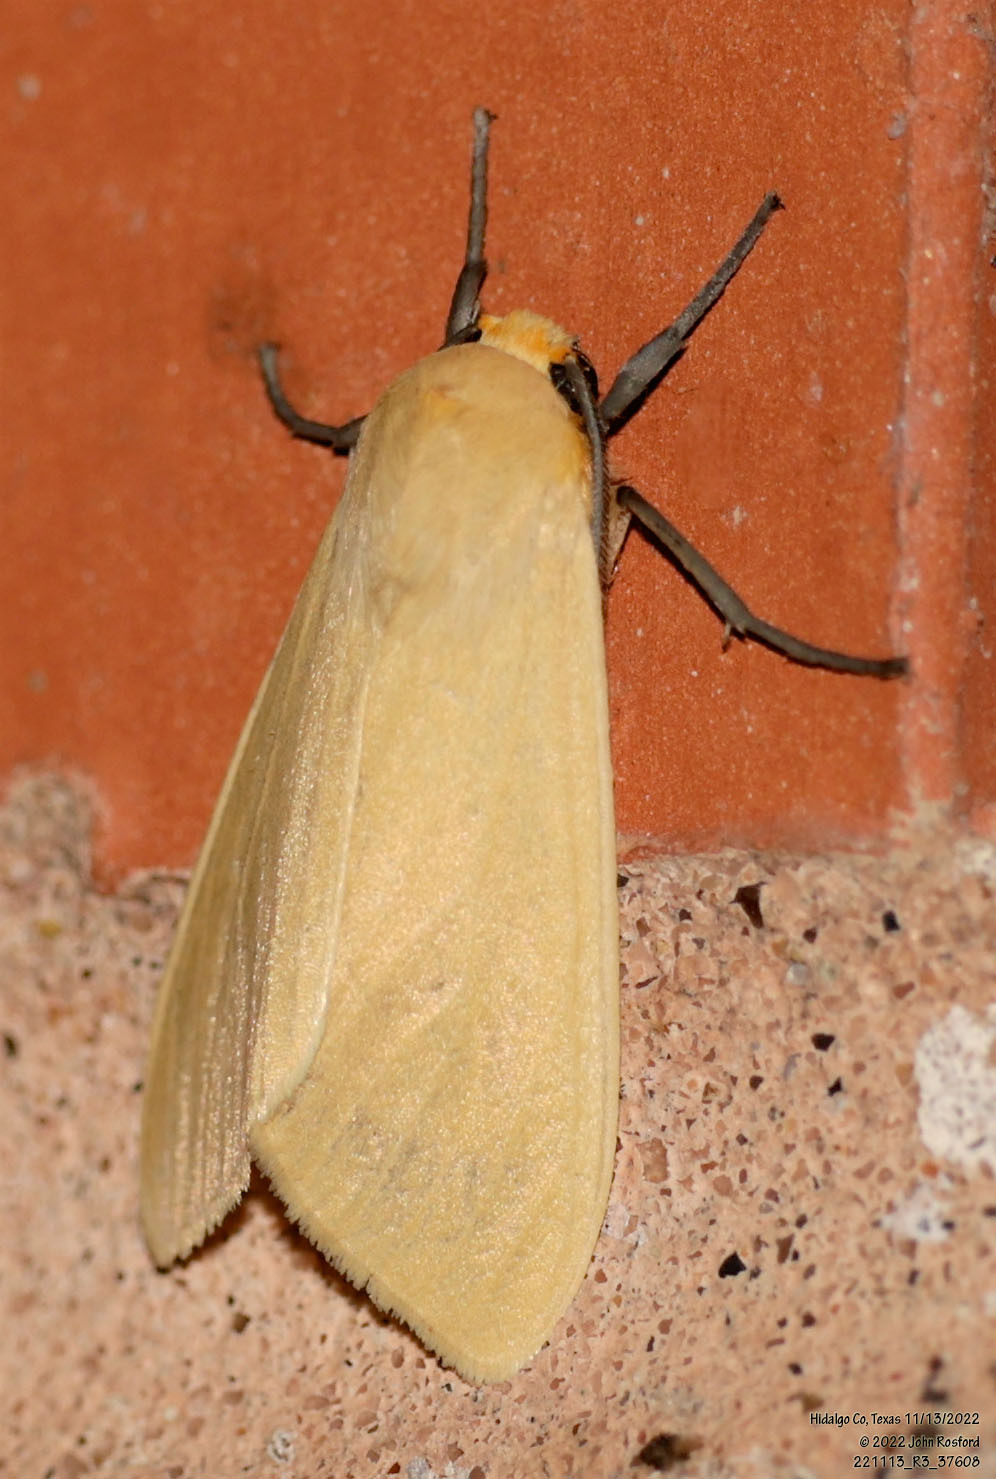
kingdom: Animalia
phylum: Arthropoda
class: Insecta
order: Lepidoptera
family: Erebidae
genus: Pareuchaetes
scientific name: Pareuchaetes insulata
